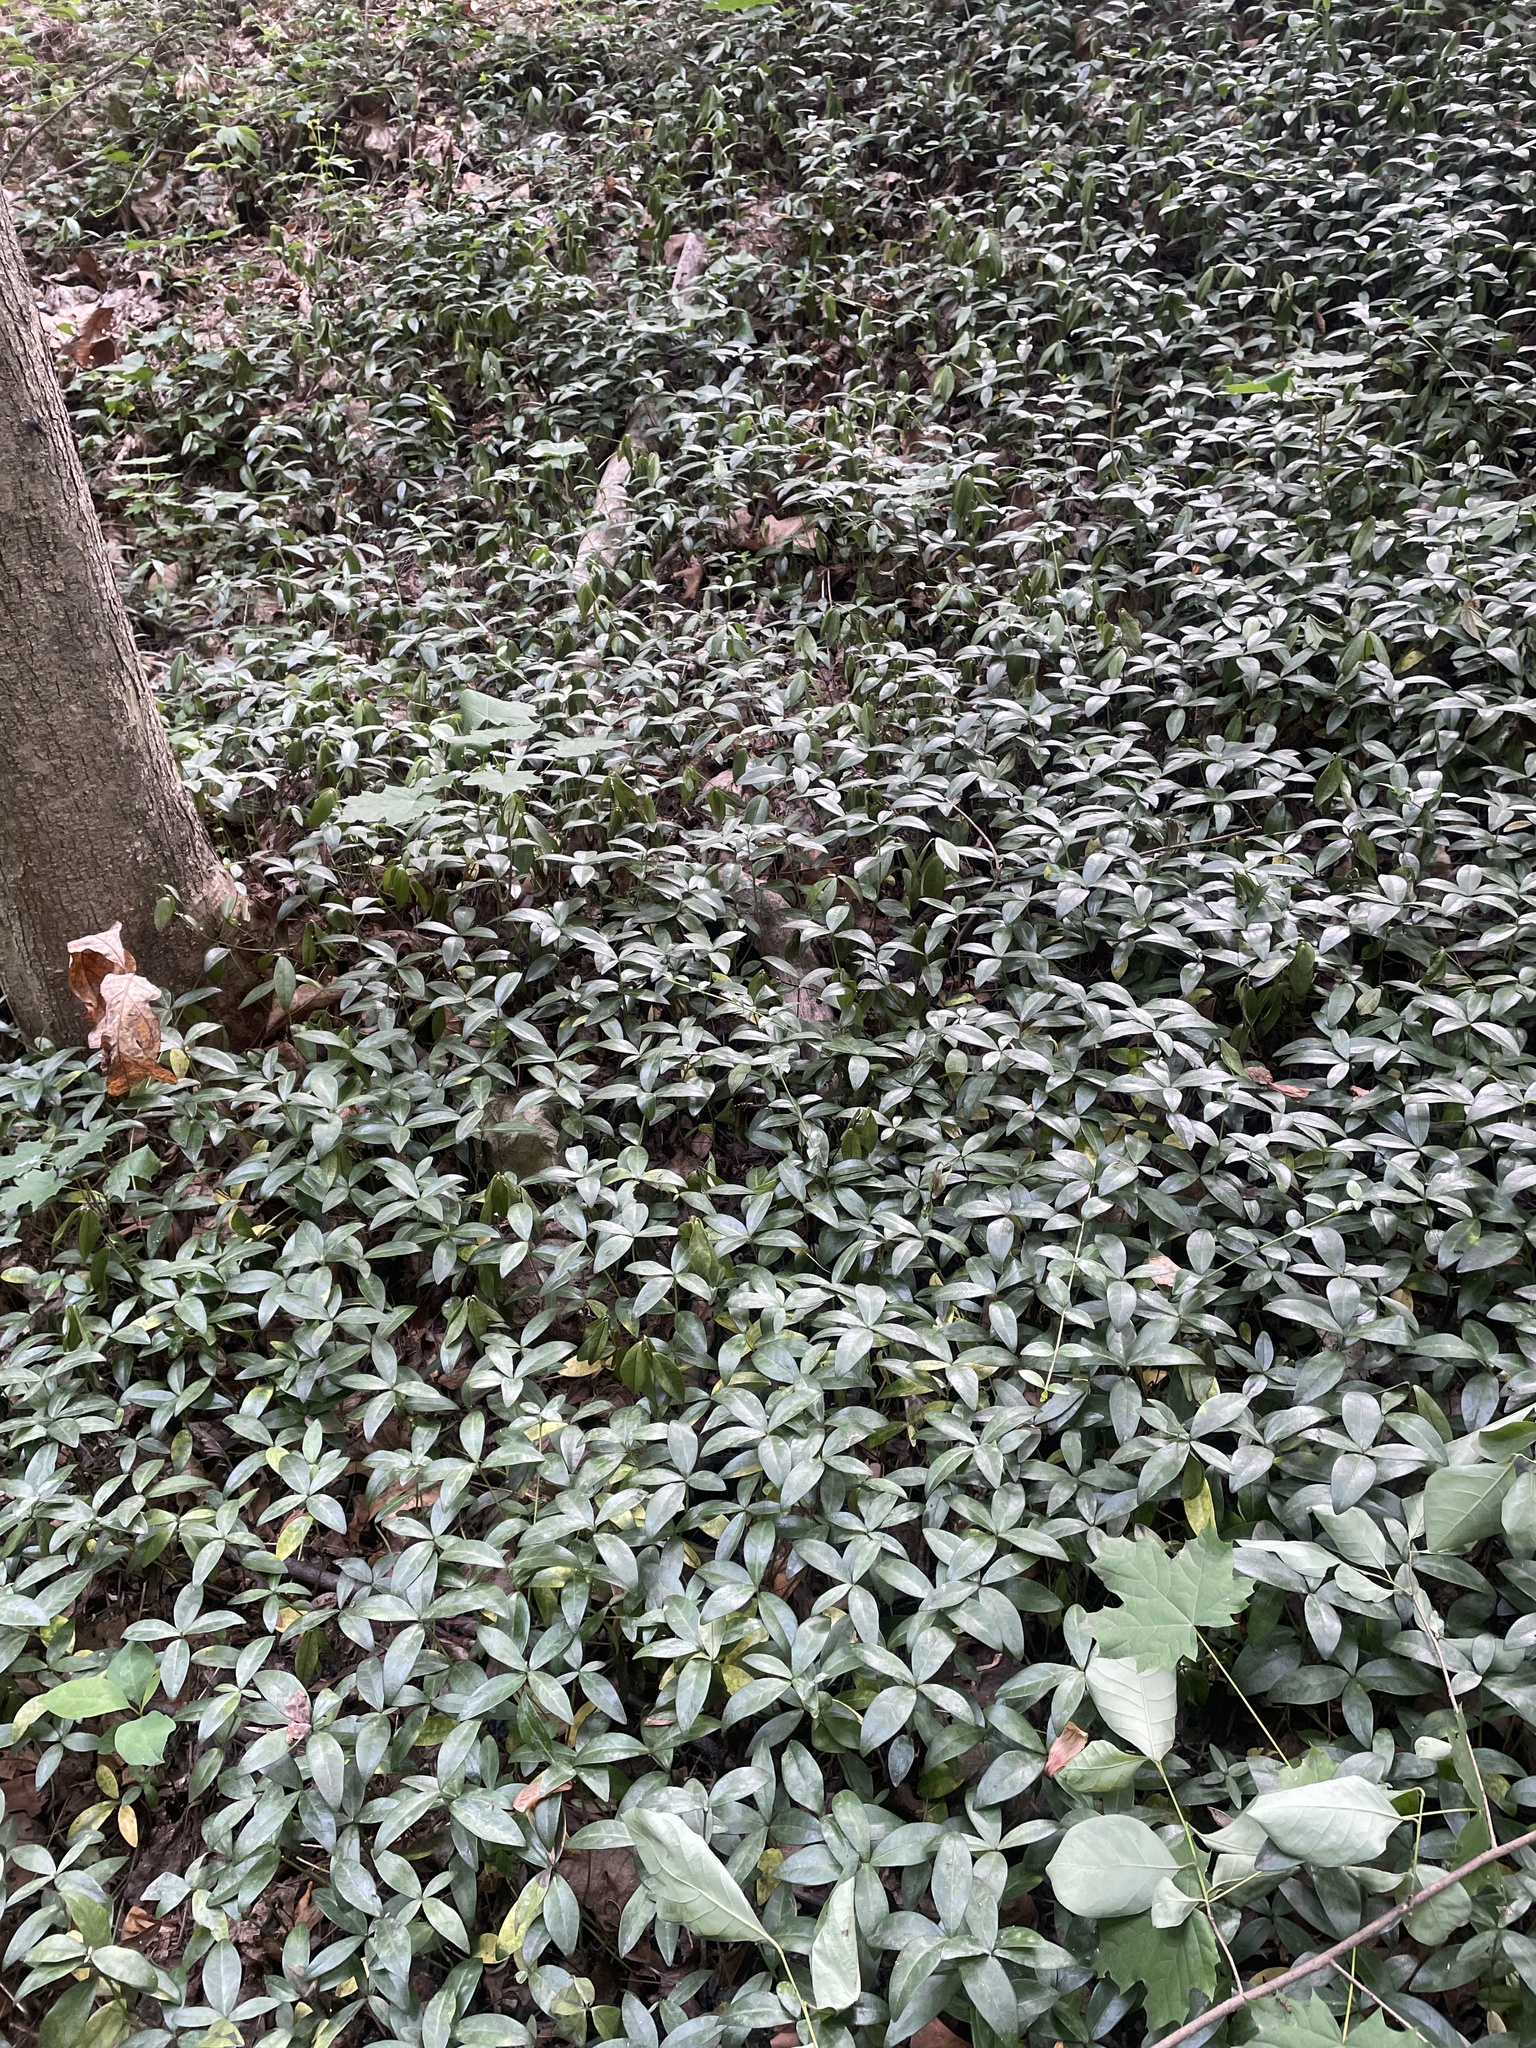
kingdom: Plantae
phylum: Tracheophyta
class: Magnoliopsida
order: Gentianales
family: Apocynaceae
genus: Vinca
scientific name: Vinca minor
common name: Lesser periwinkle
